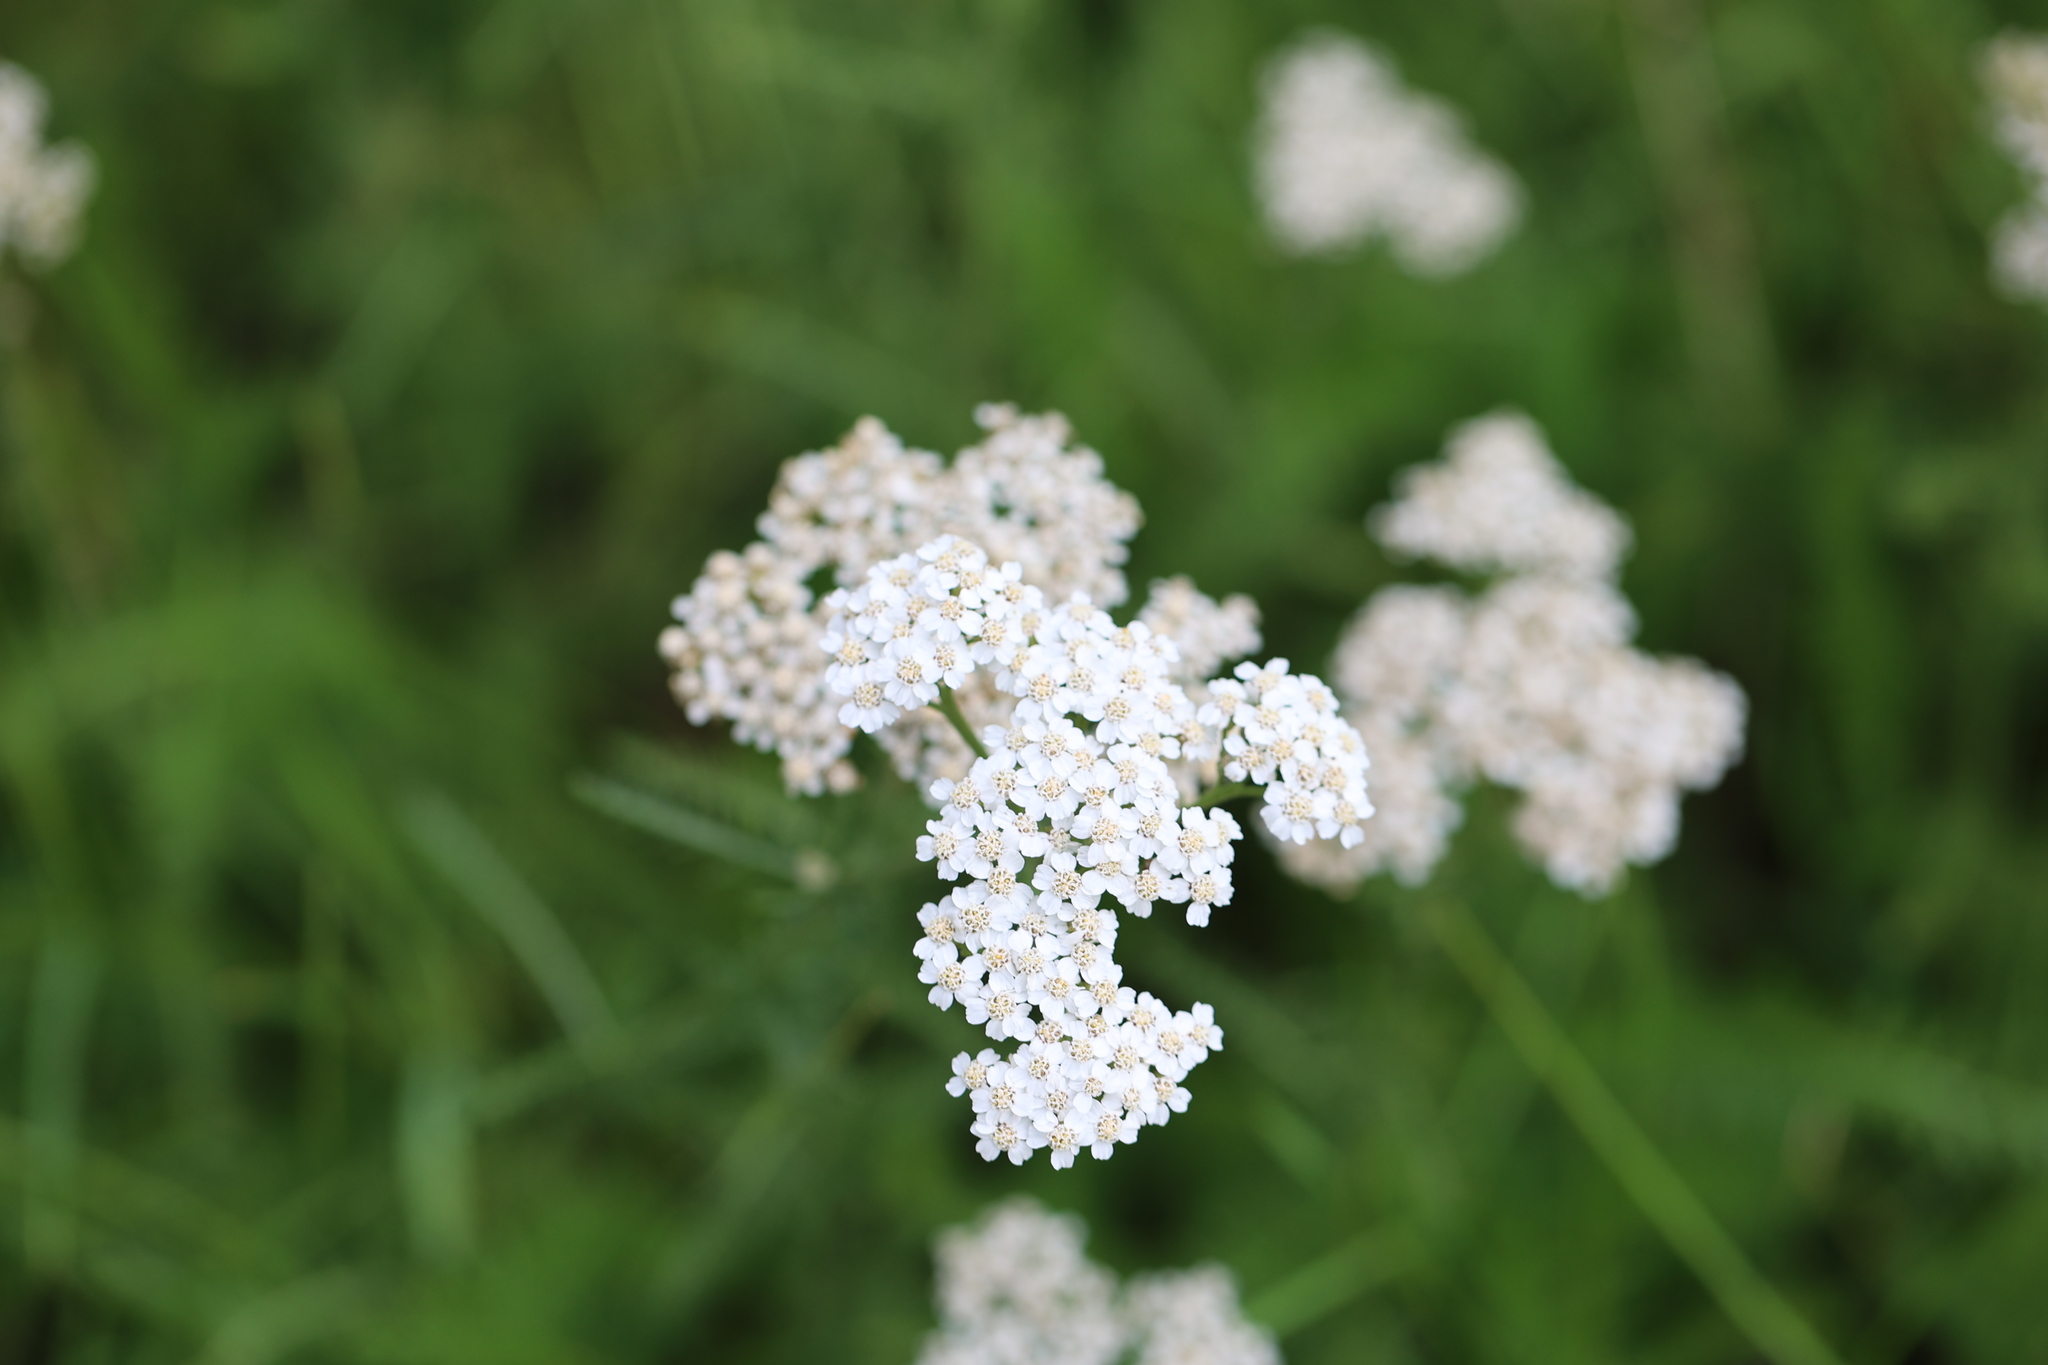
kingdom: Plantae
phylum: Tracheophyta
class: Magnoliopsida
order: Asterales
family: Asteraceae
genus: Achillea
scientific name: Achillea millefolium
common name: Yarrow
